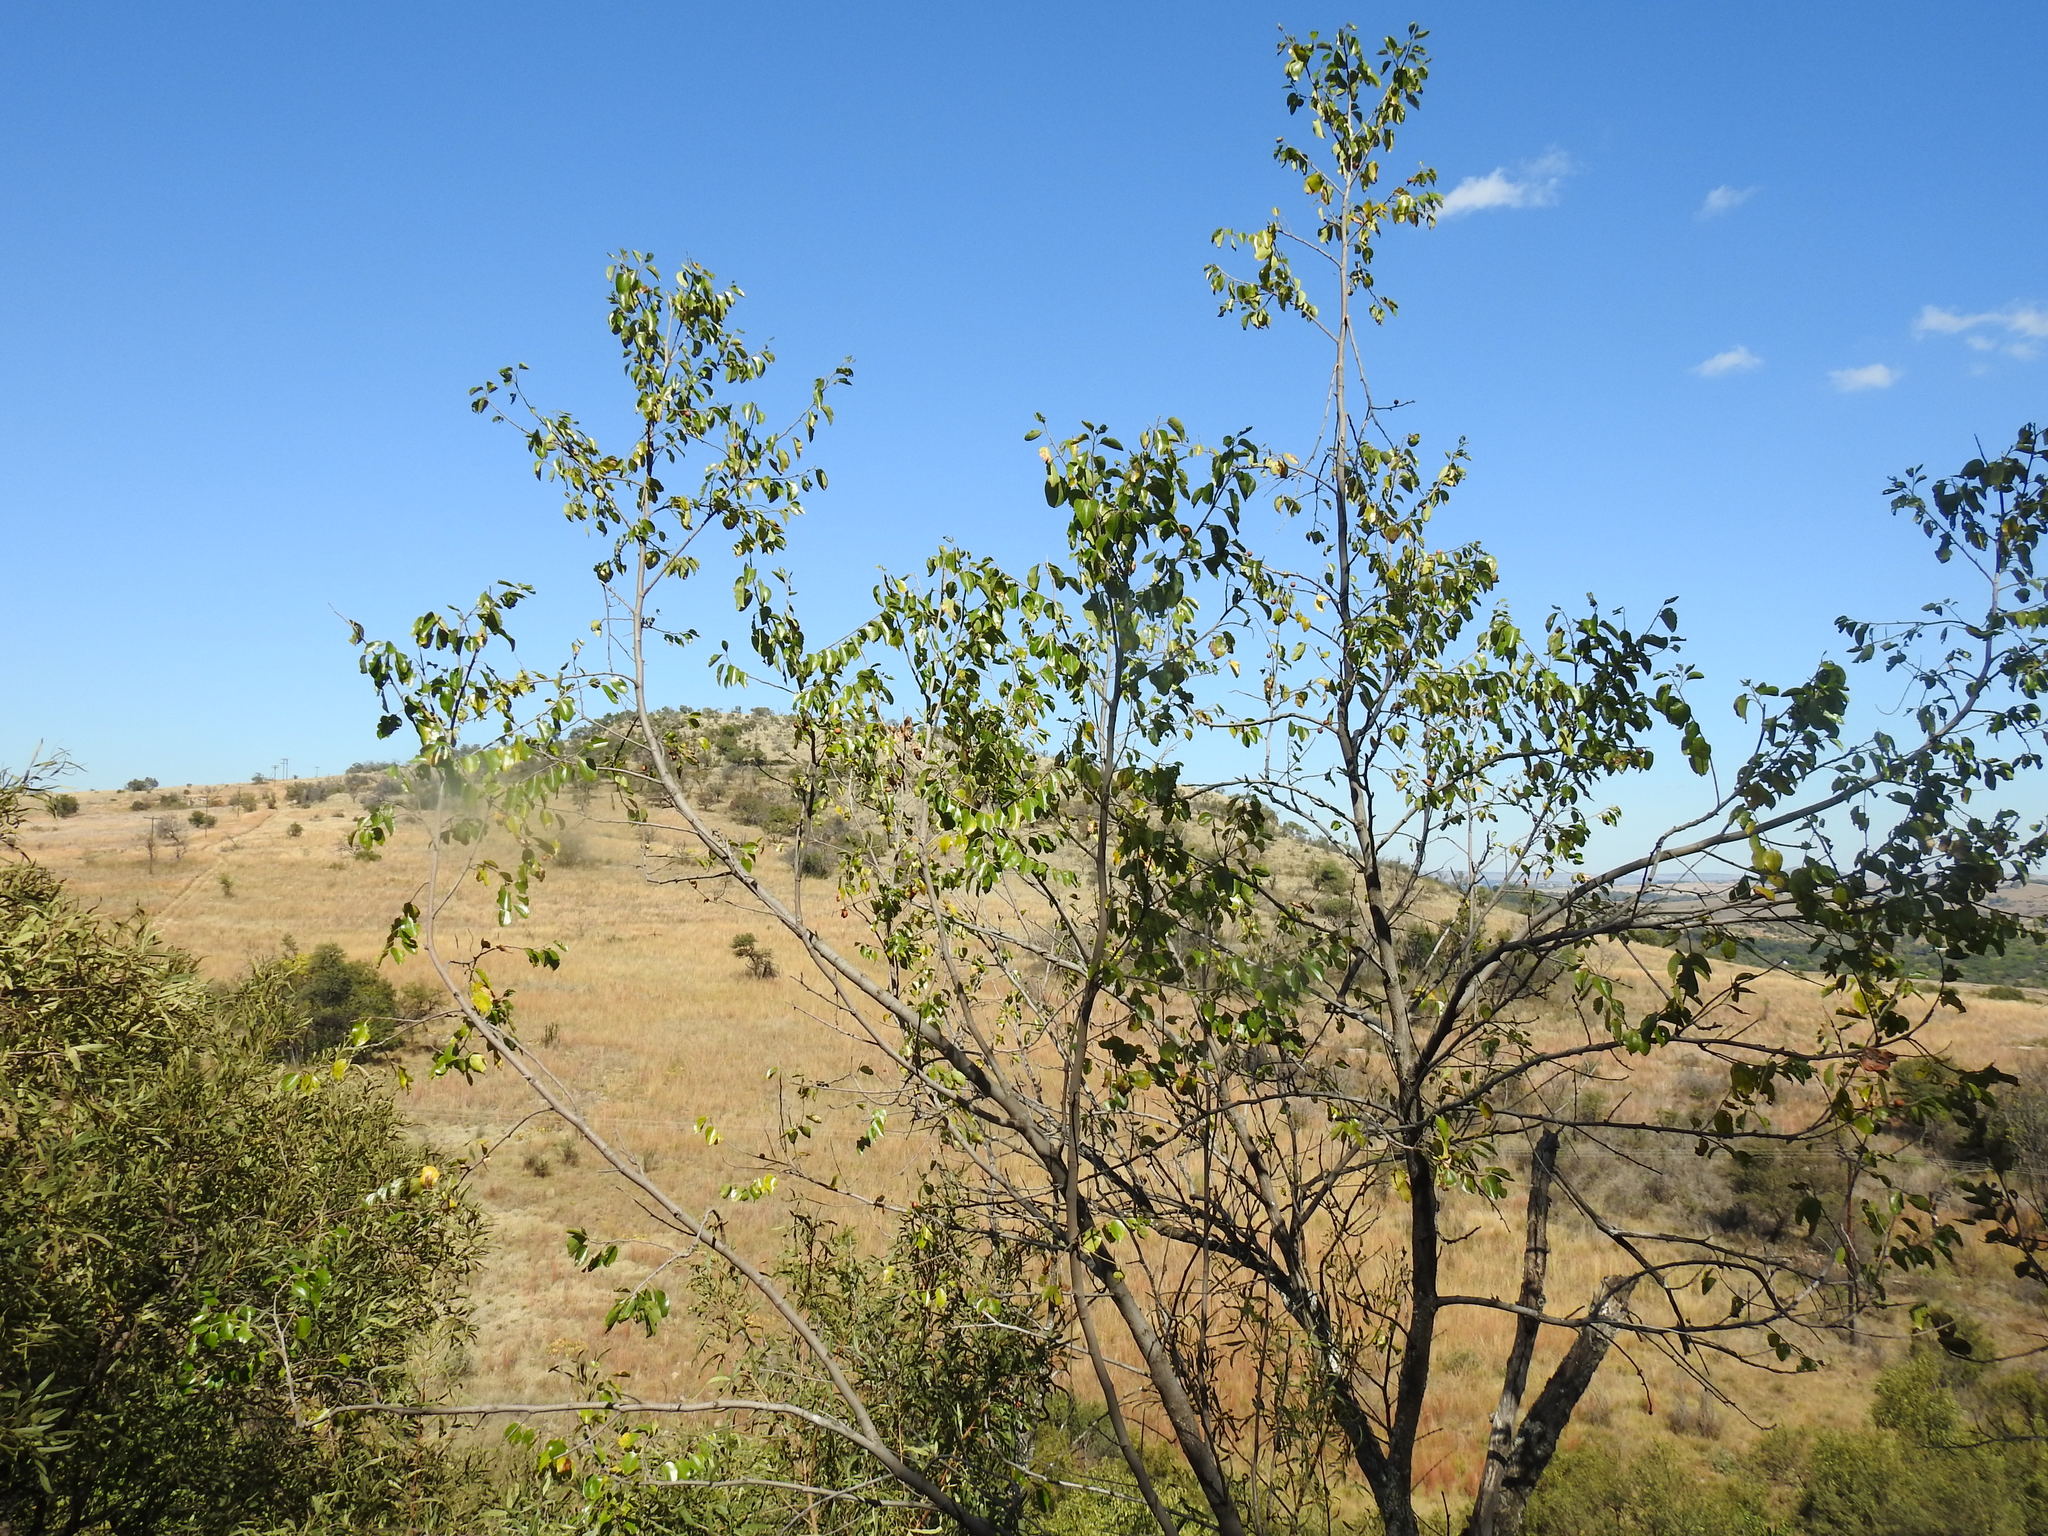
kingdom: Plantae
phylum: Tracheophyta
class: Magnoliopsida
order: Rosales
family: Rhamnaceae
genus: Ziziphus
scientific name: Ziziphus mucronata
